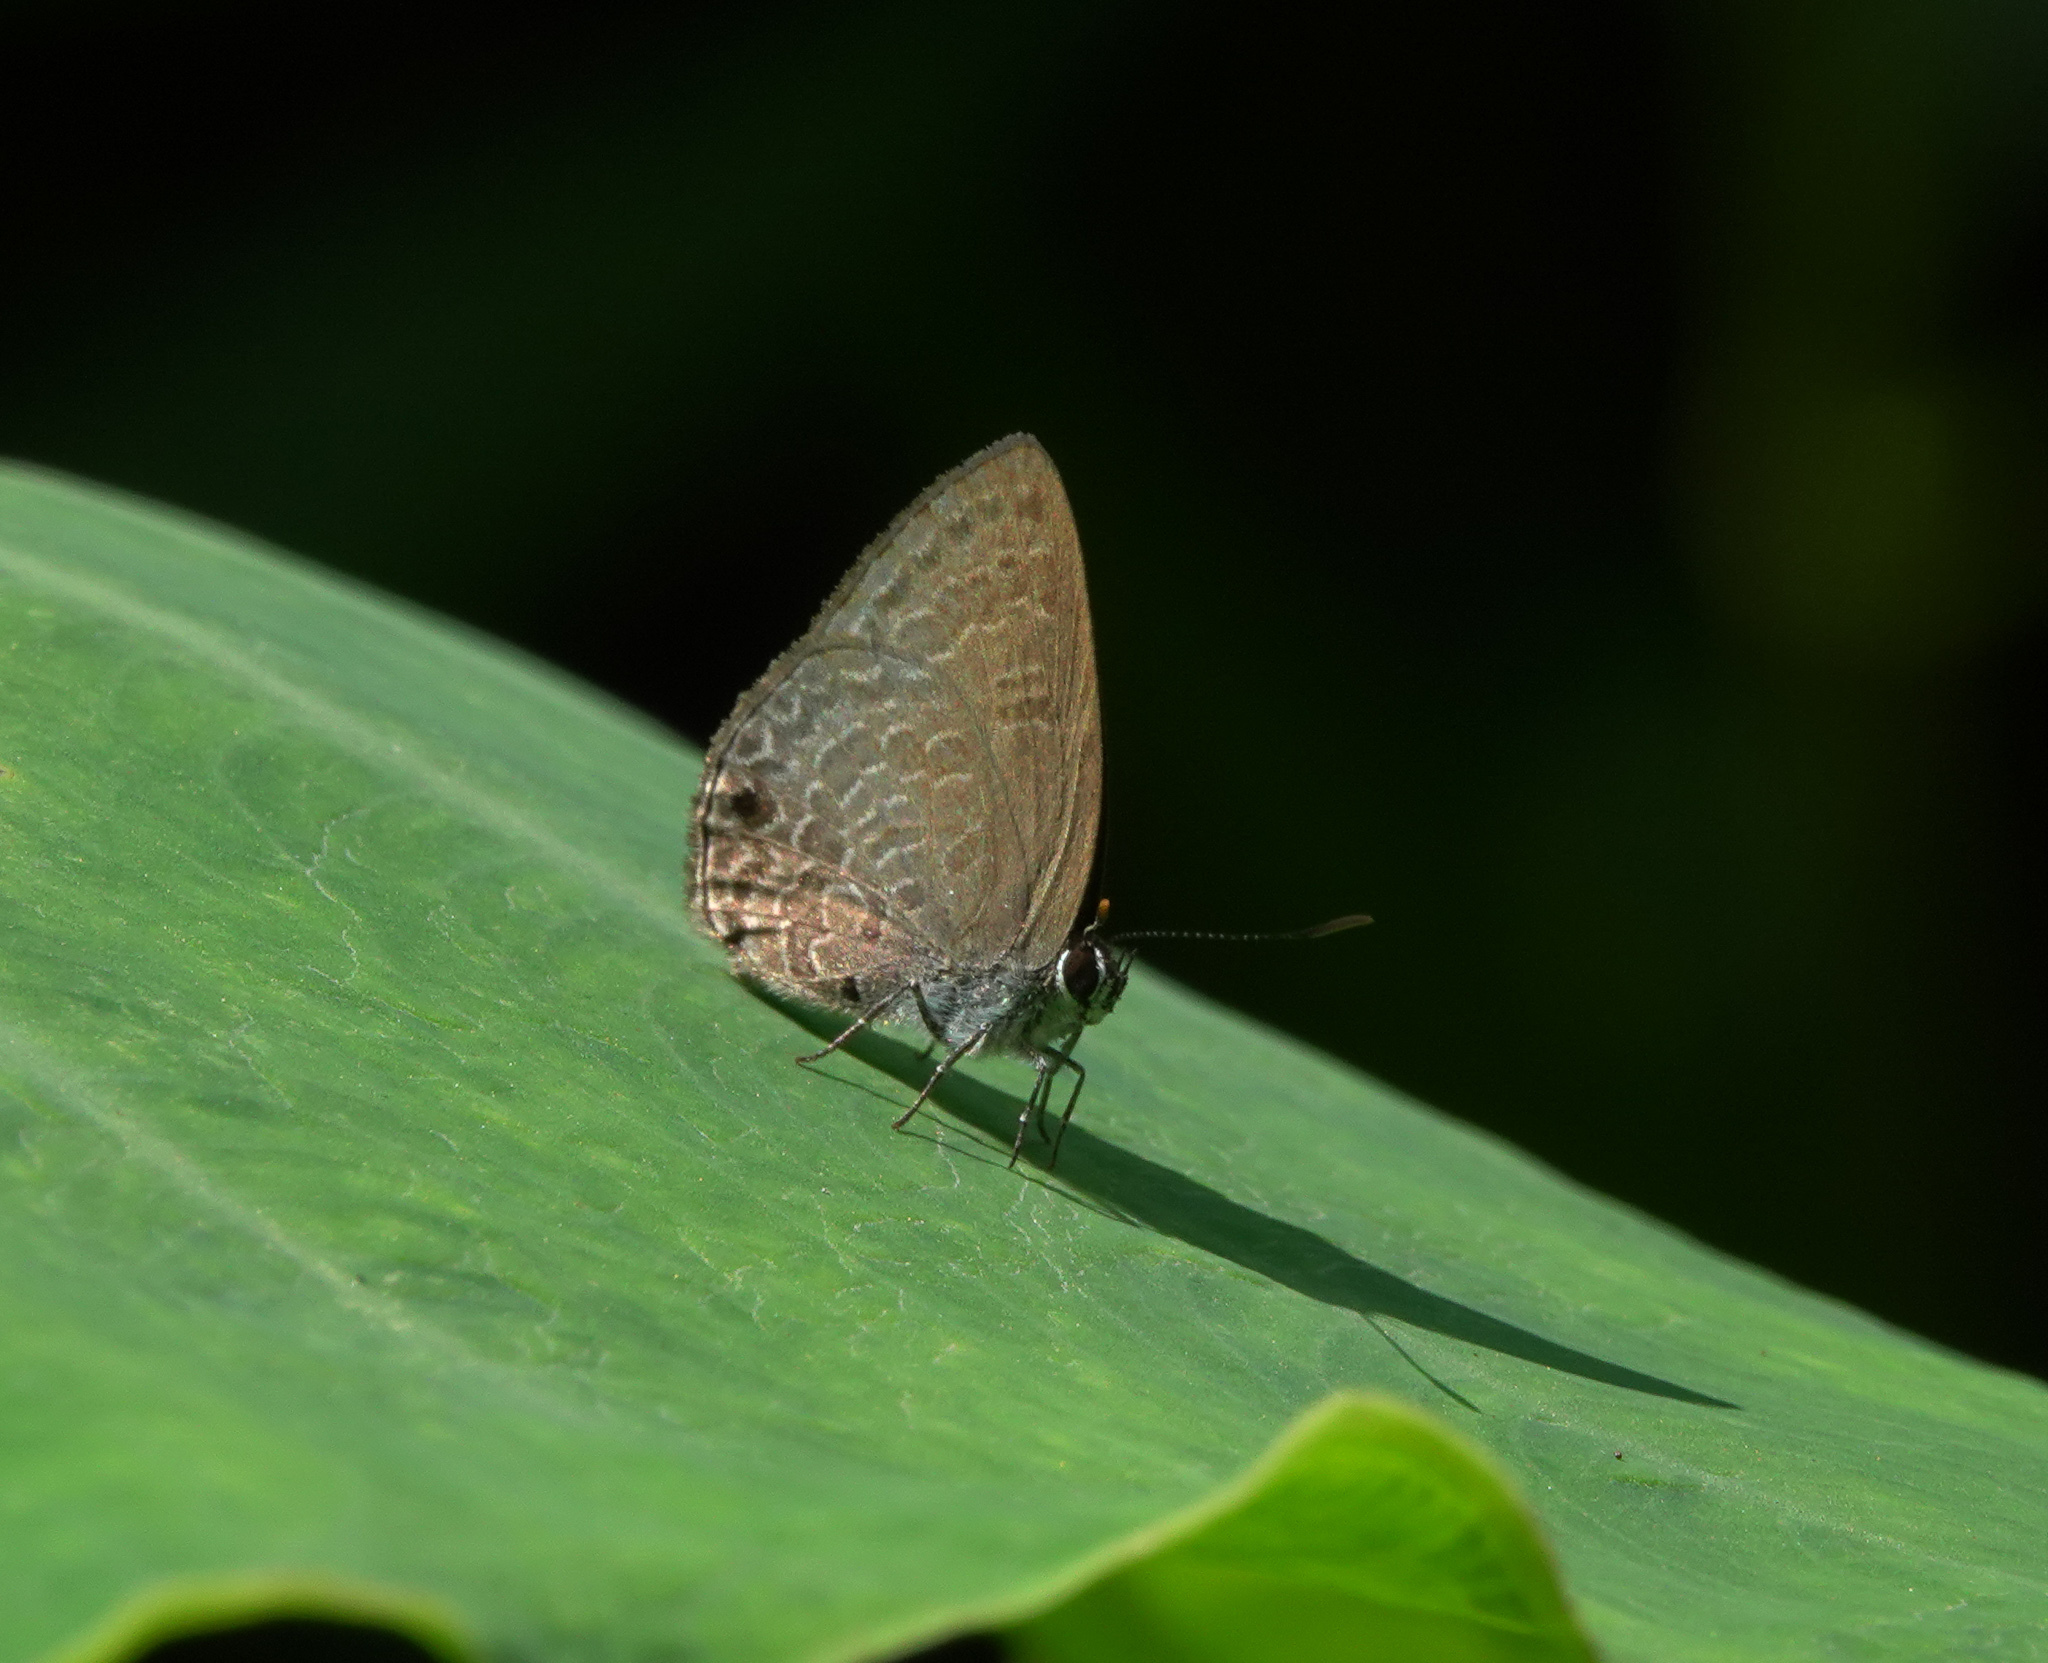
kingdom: Animalia
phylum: Arthropoda
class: Insecta
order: Lepidoptera
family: Lycaenidae
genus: Anthene
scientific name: Anthene emolus
